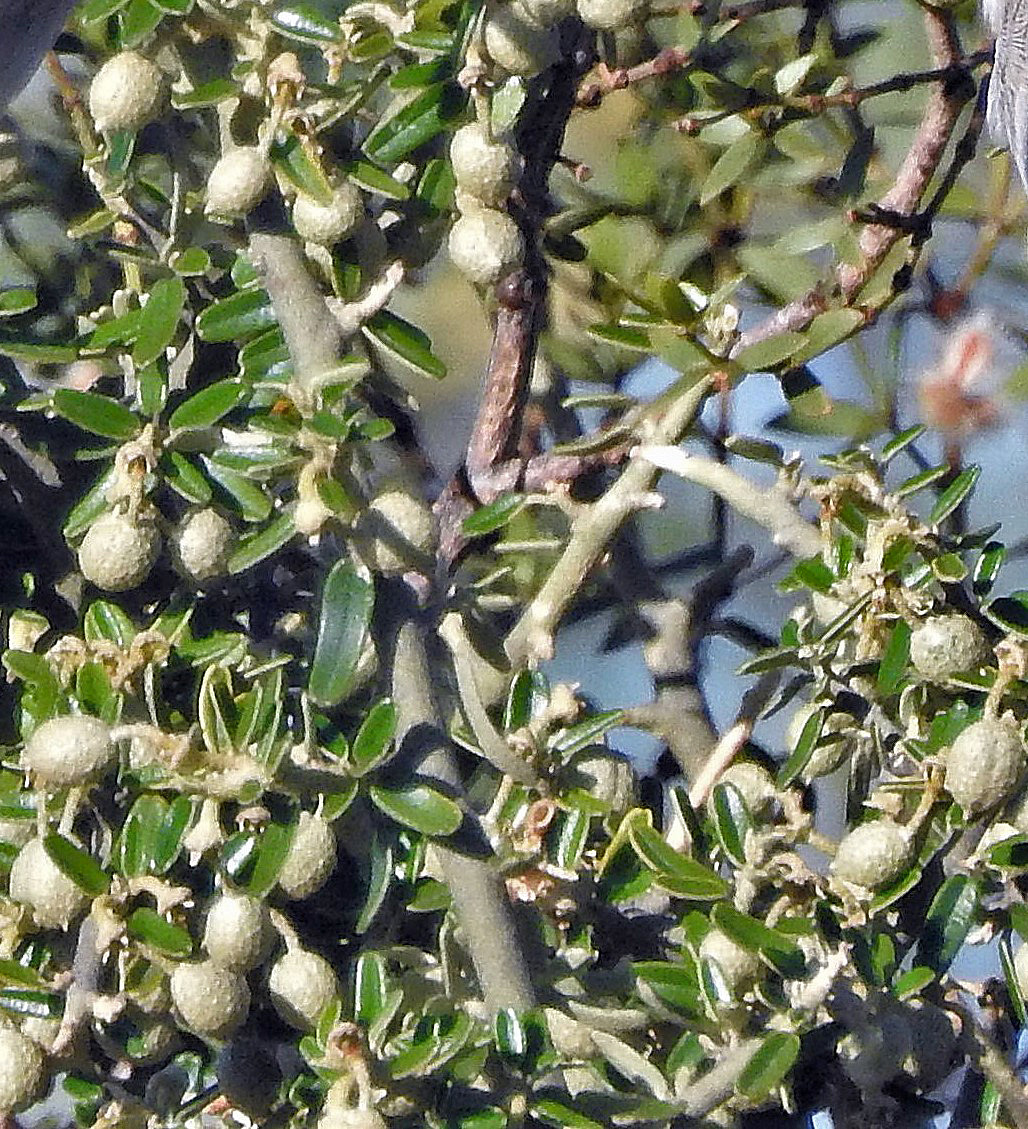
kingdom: Plantae
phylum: Tracheophyta
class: Magnoliopsida
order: Brassicales
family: Capparaceae
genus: Atamisquea
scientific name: Atamisquea emarginata
